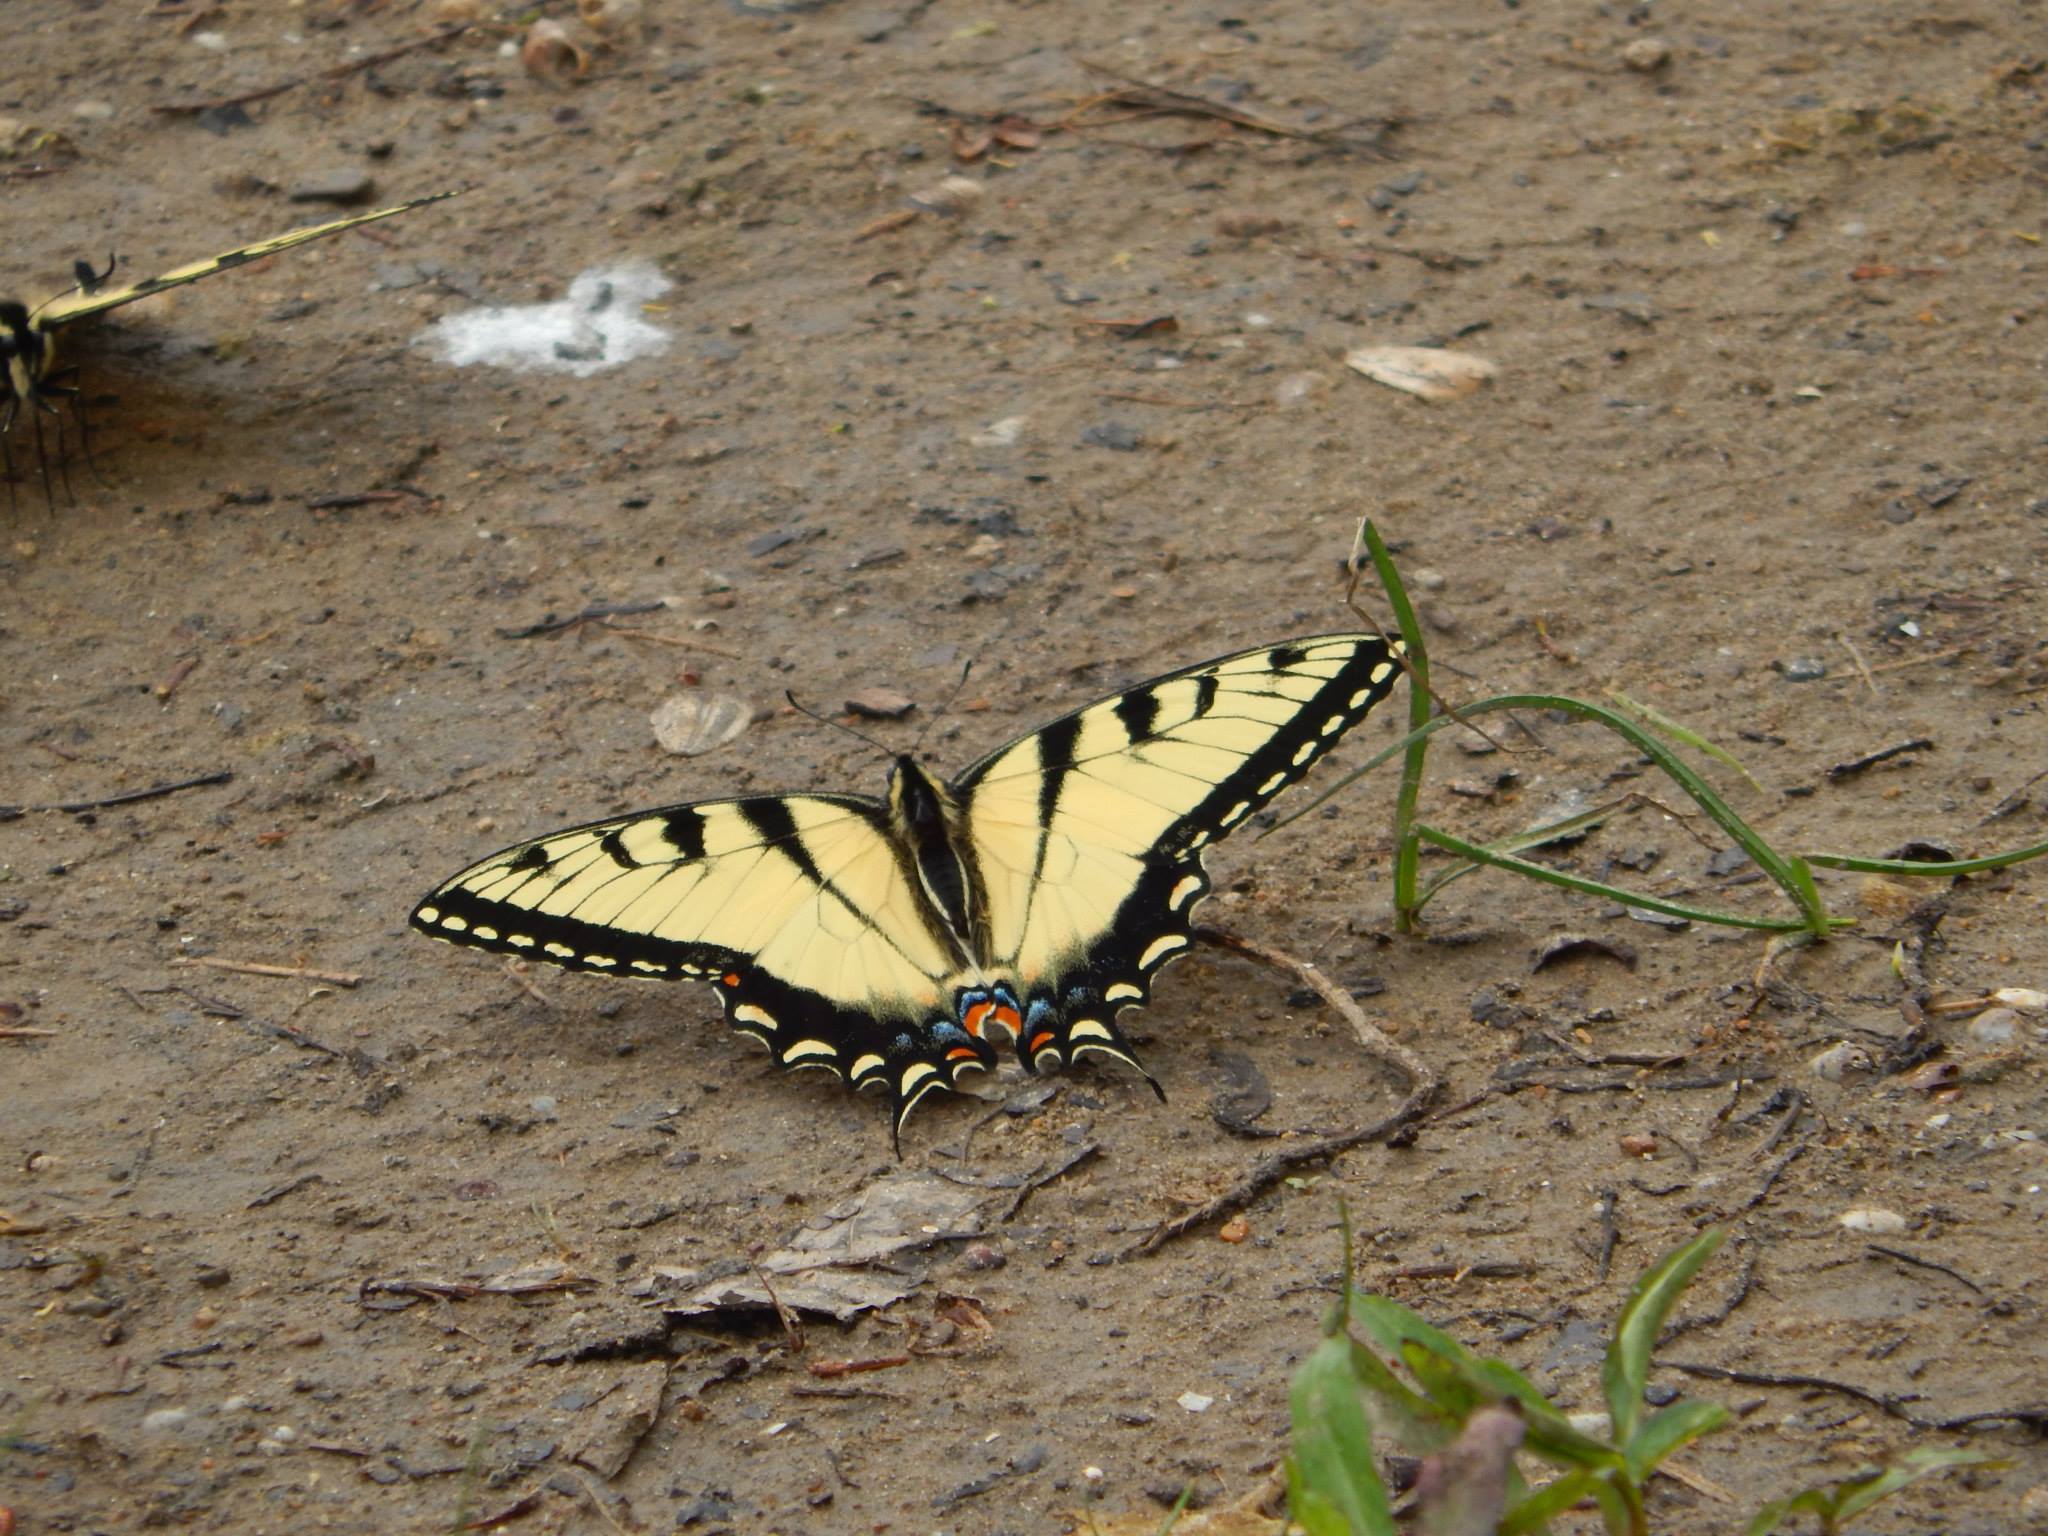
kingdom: Animalia
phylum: Arthropoda
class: Insecta
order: Lepidoptera
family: Papilionidae
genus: Papilio
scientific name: Papilio glaucus
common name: Tiger swallowtail
